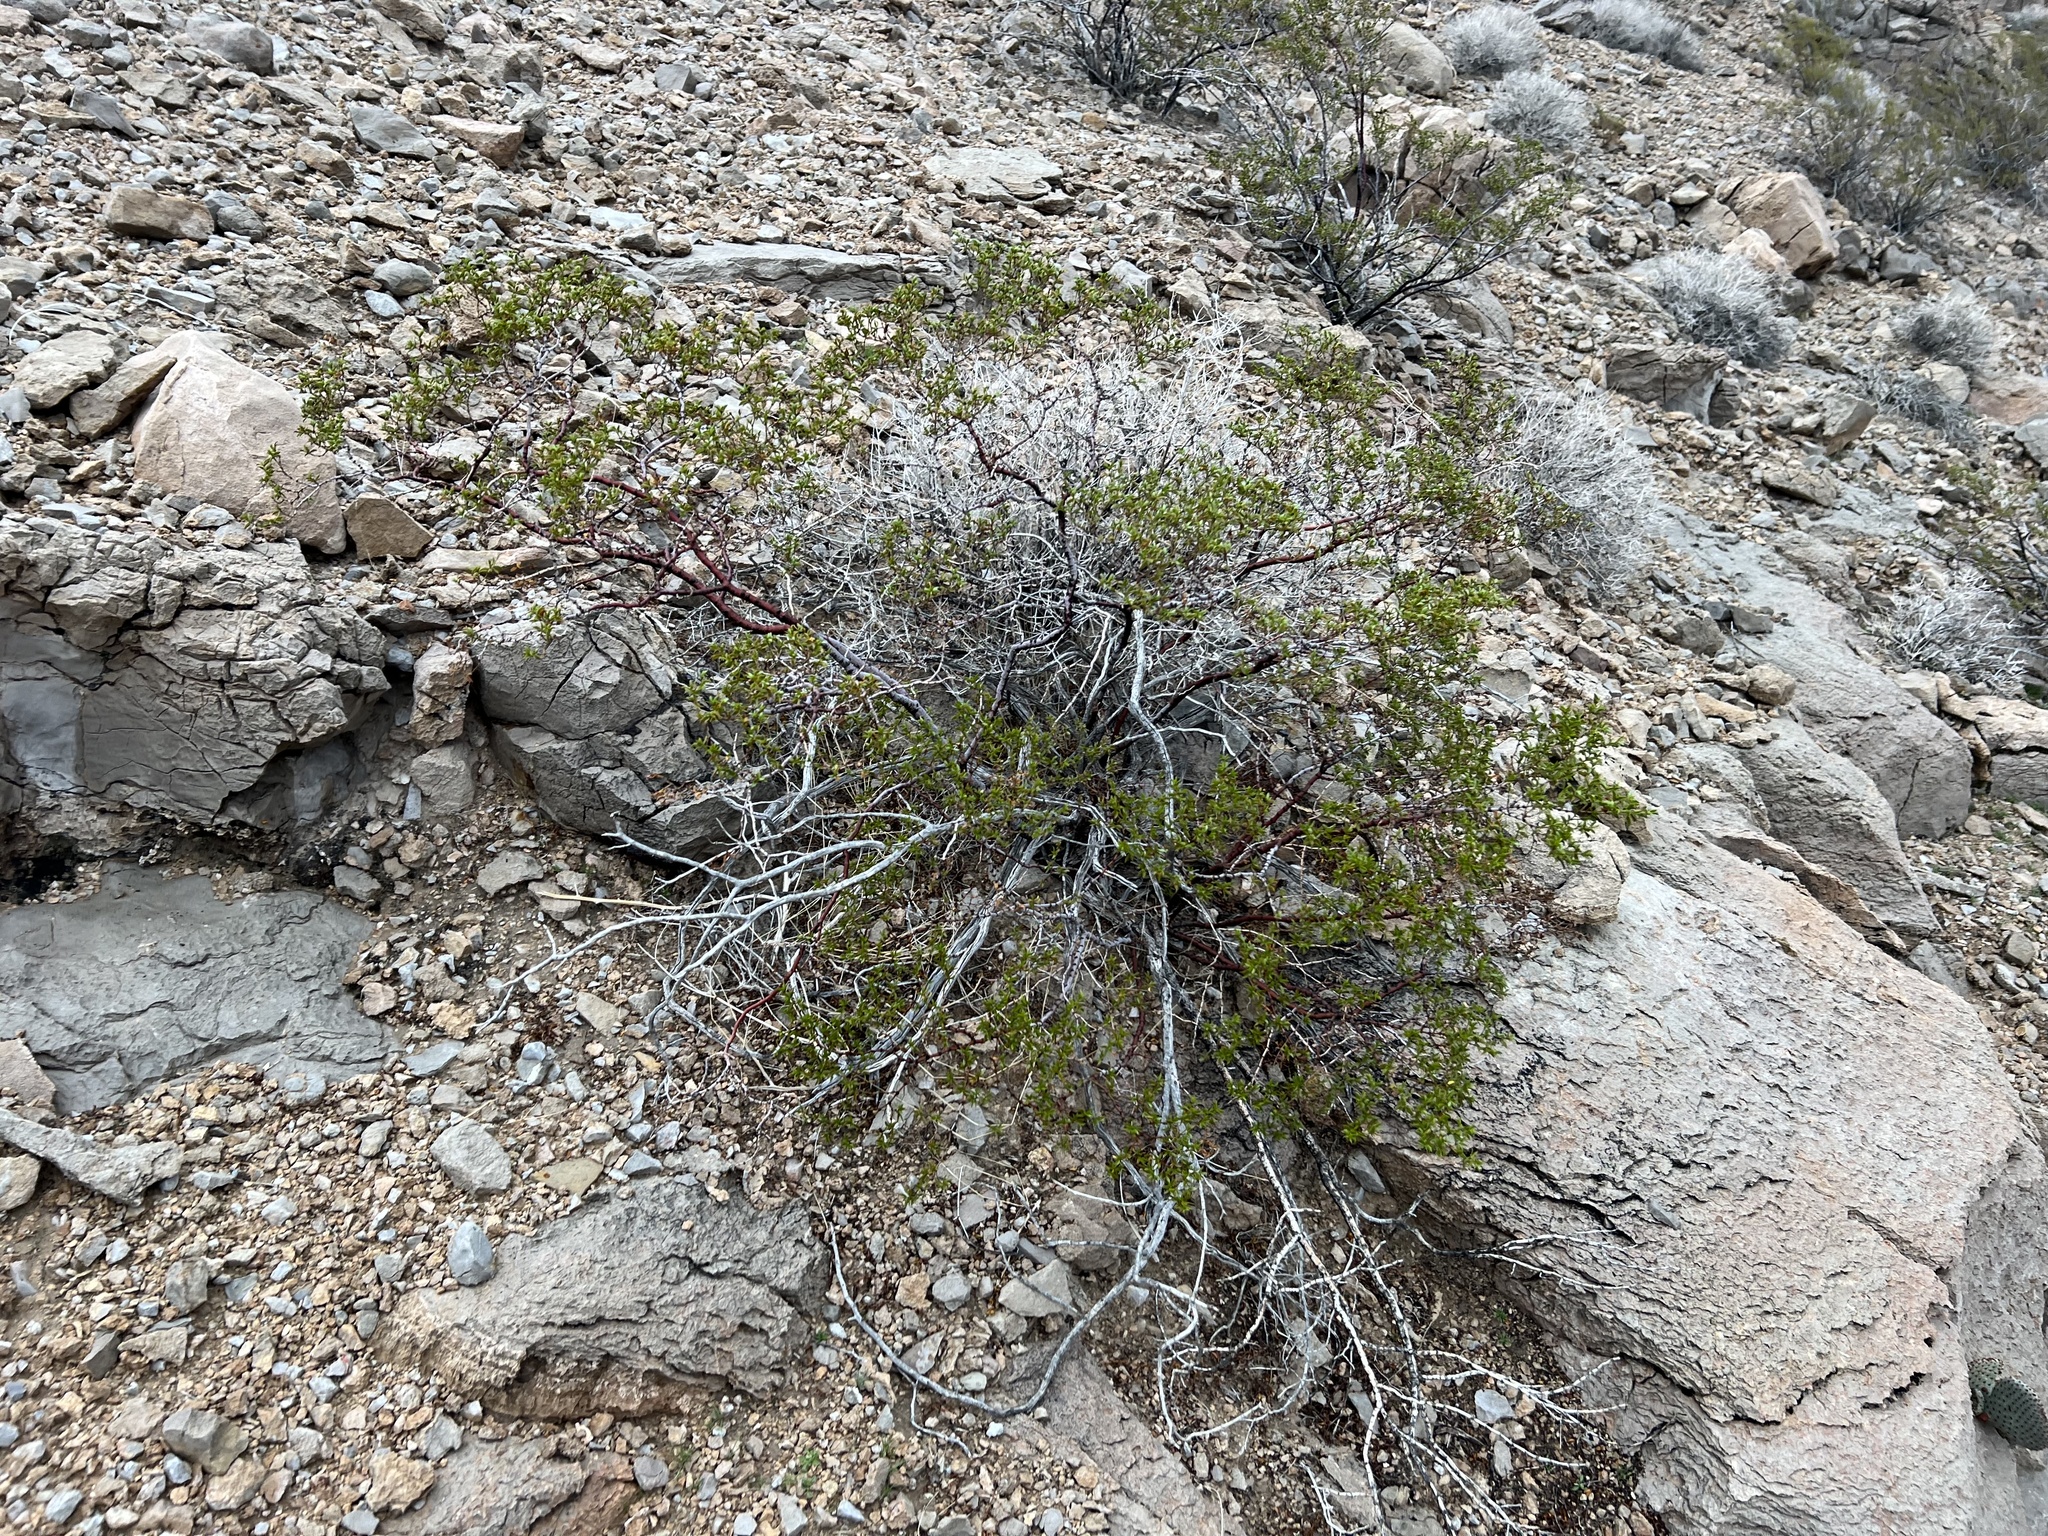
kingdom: Plantae
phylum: Tracheophyta
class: Magnoliopsida
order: Zygophyllales
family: Zygophyllaceae
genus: Larrea
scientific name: Larrea tridentata
